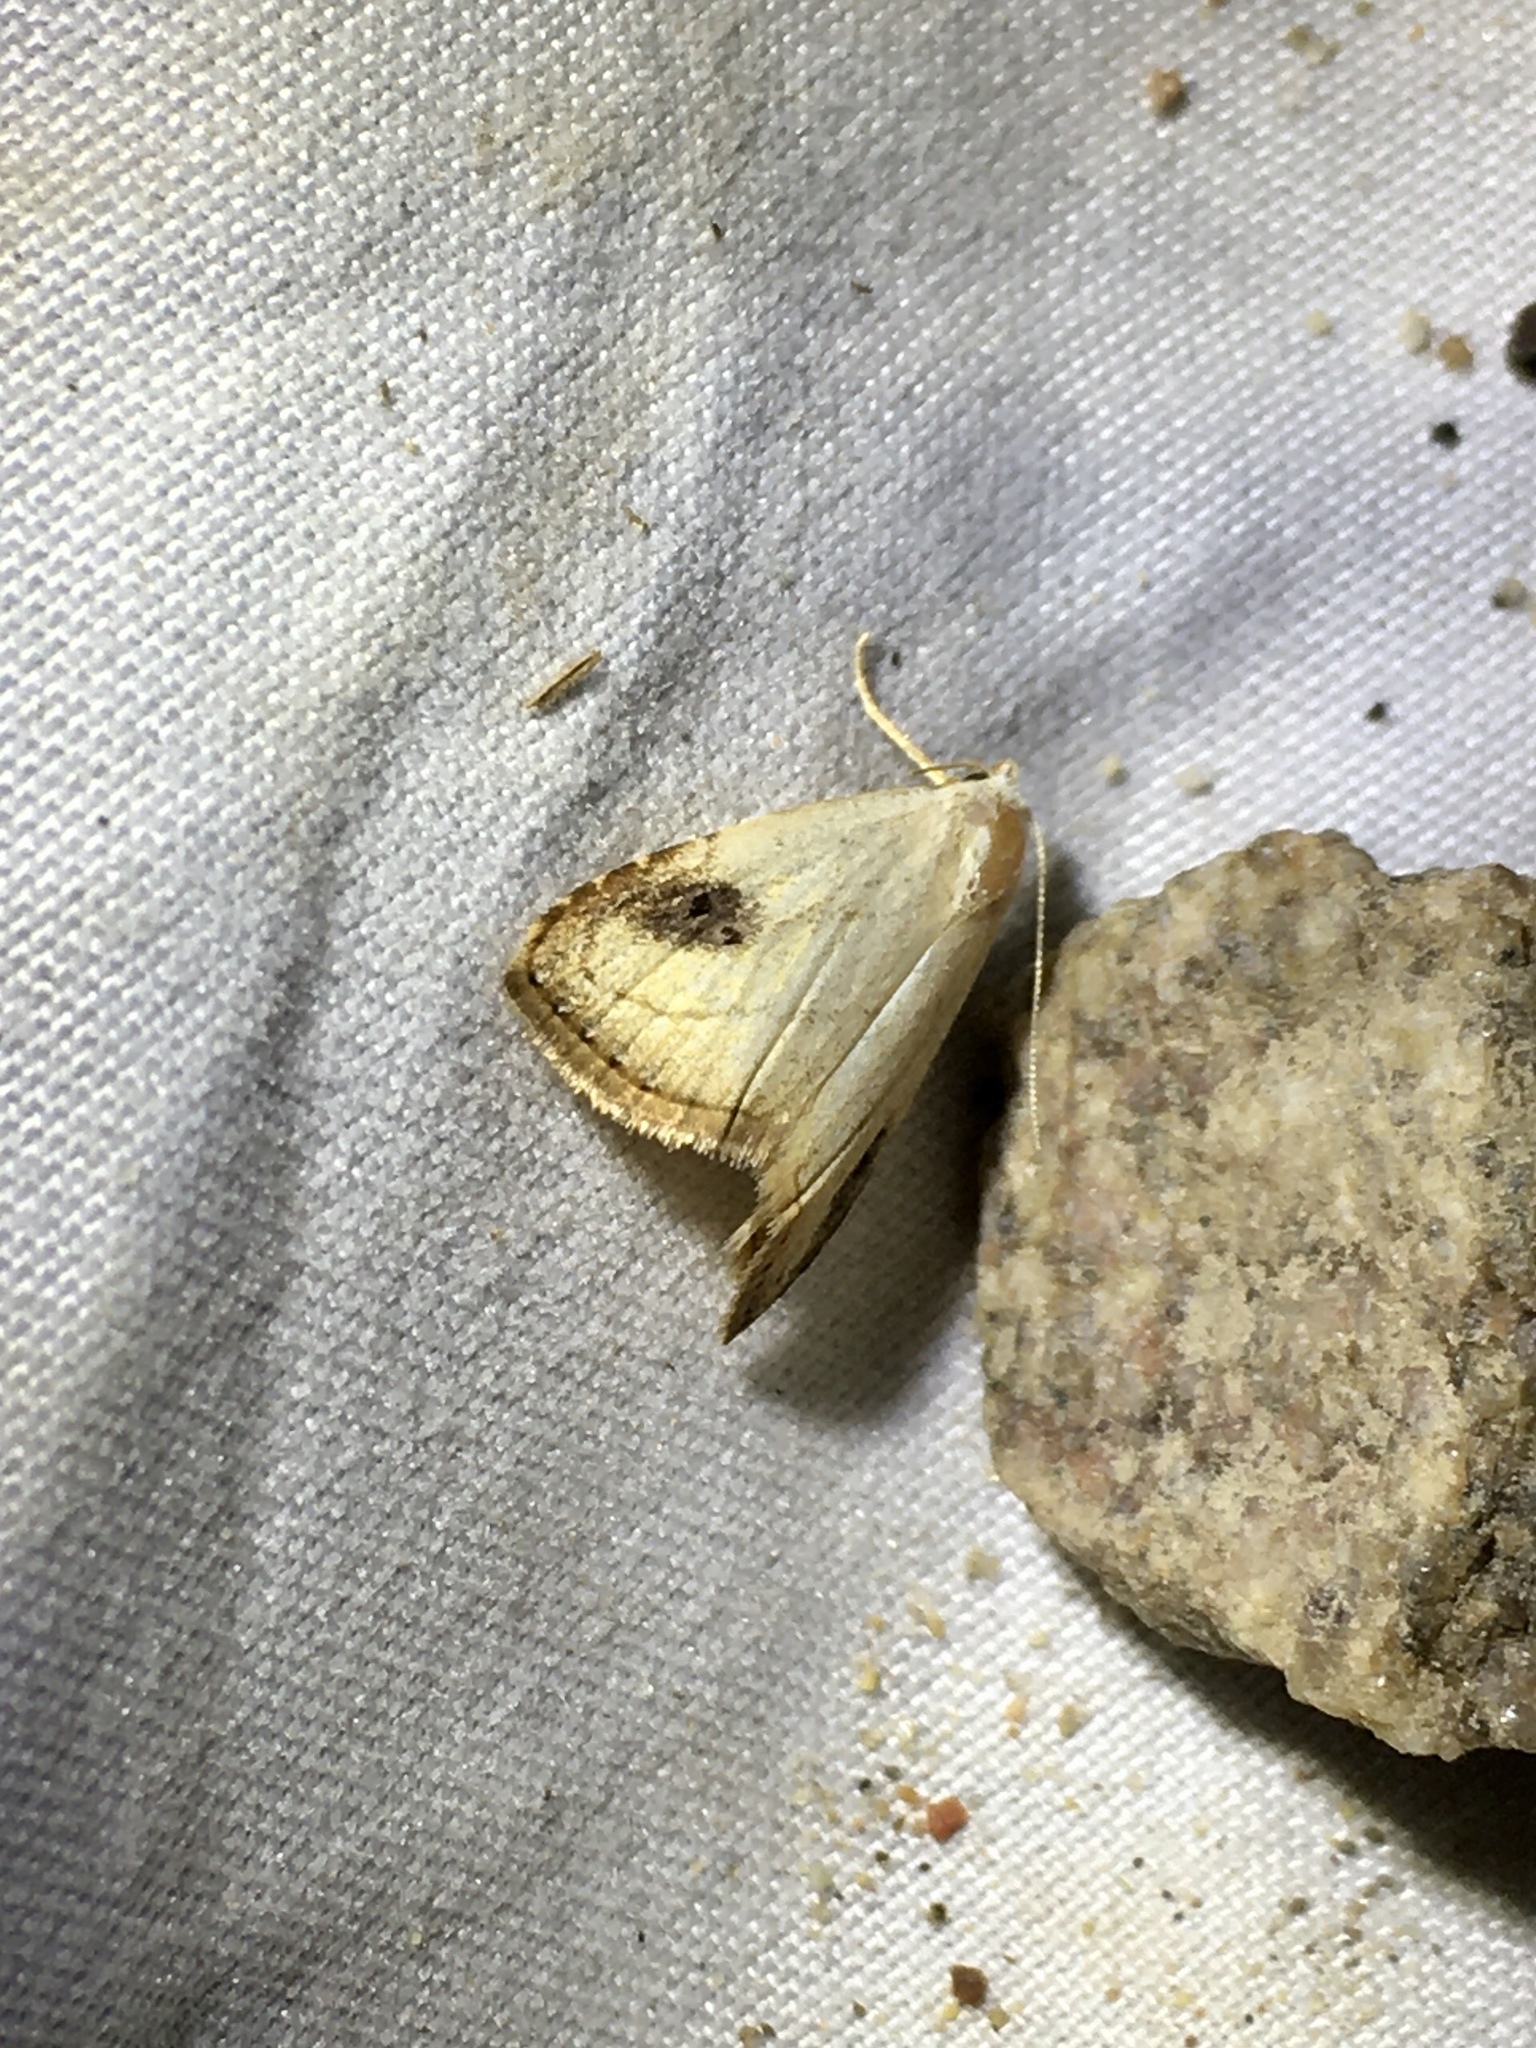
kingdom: Animalia
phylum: Arthropoda
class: Insecta
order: Lepidoptera
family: Erebidae
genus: Rivula
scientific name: Rivula propinqualis
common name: Spotted grass moth
